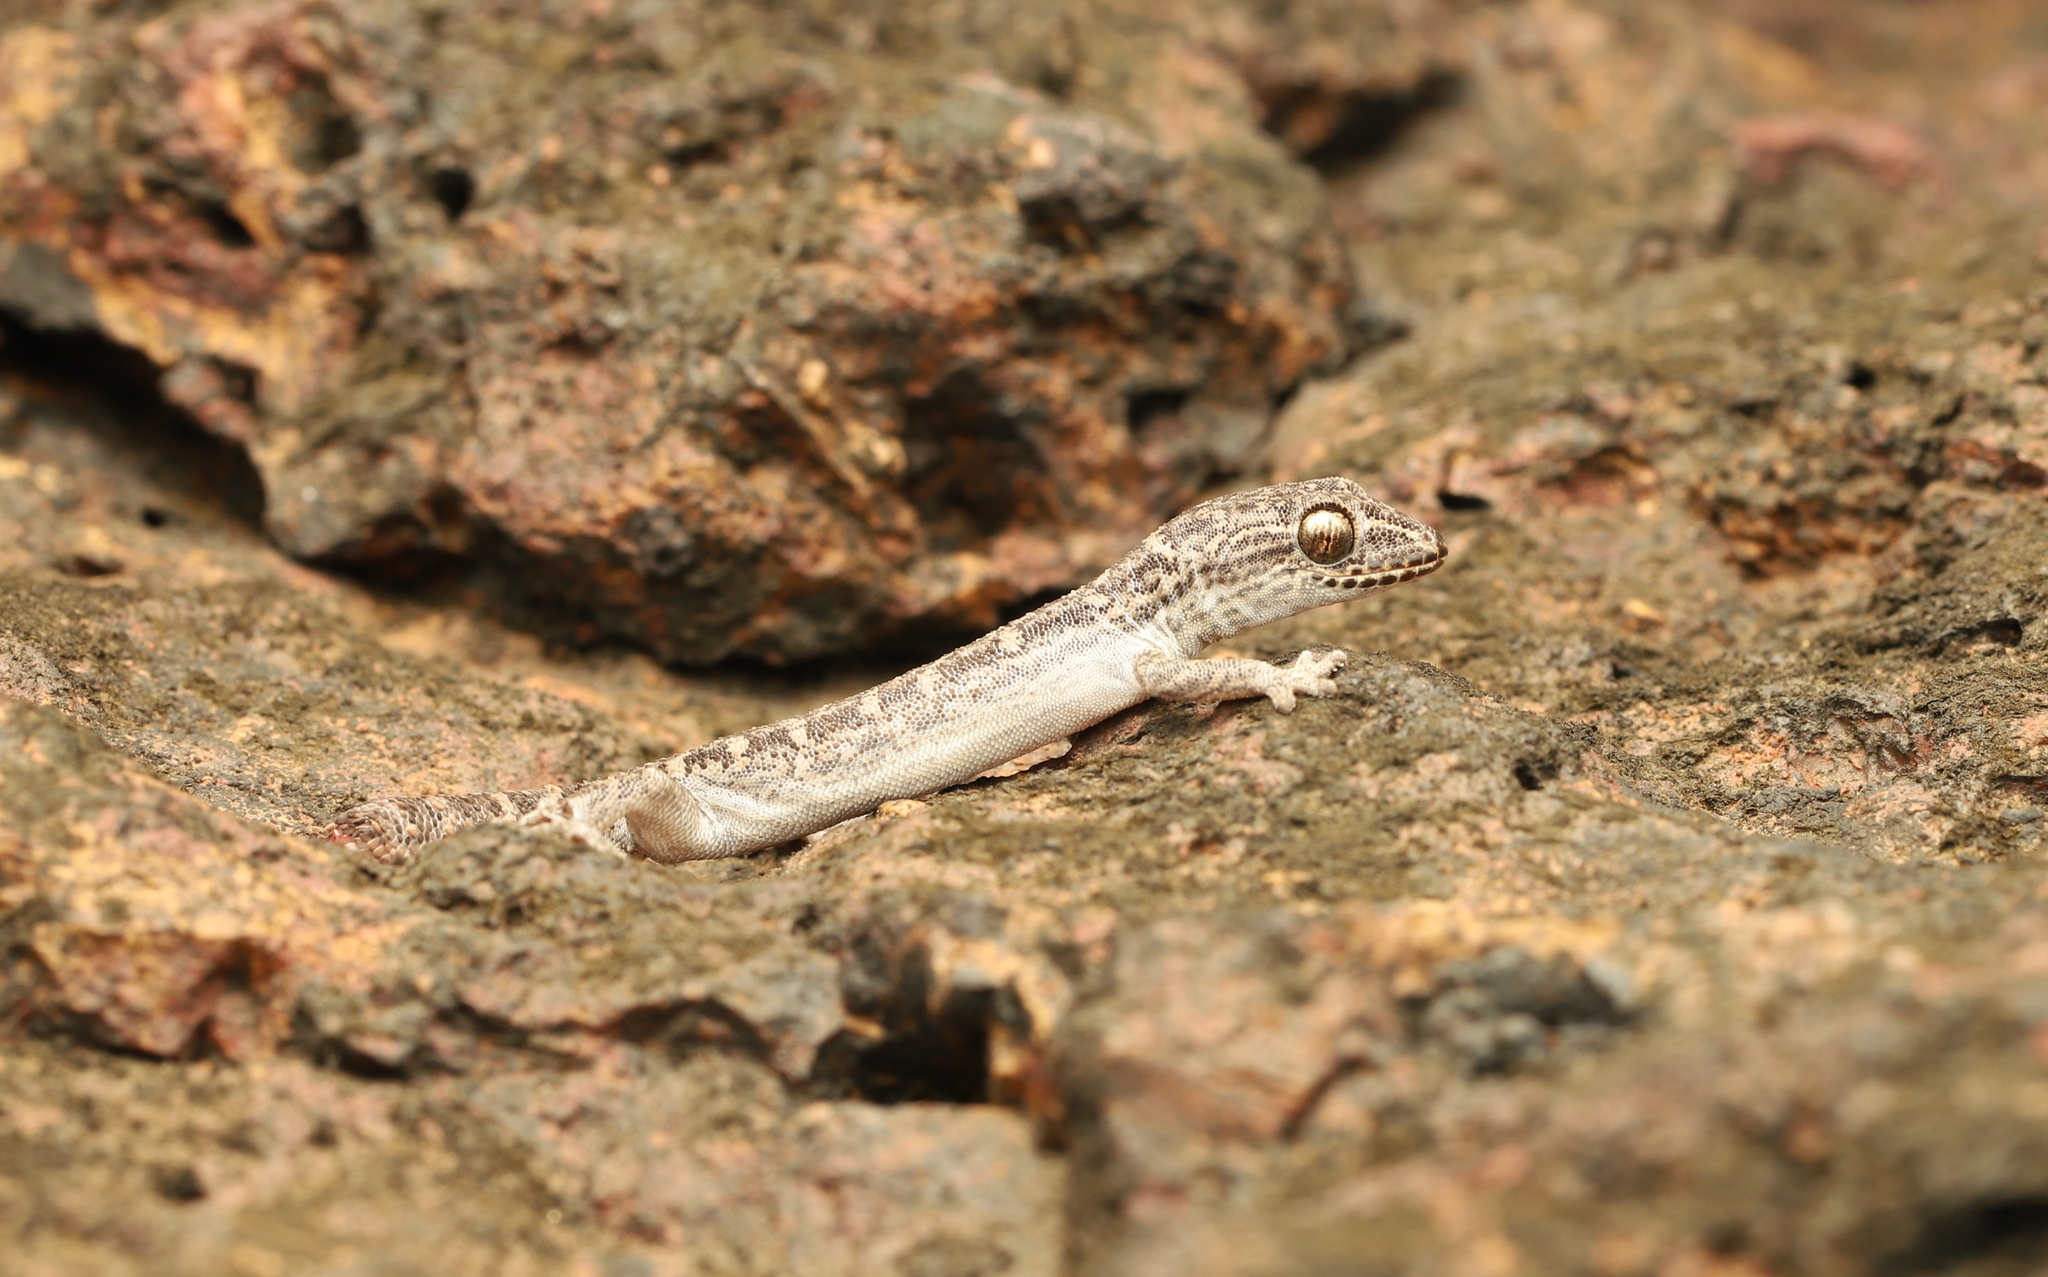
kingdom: Animalia
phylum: Chordata
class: Squamata
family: Gekkonidae
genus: Hemidactylus
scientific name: Hemidactylus albofasciatus
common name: White-striped viper gecko
